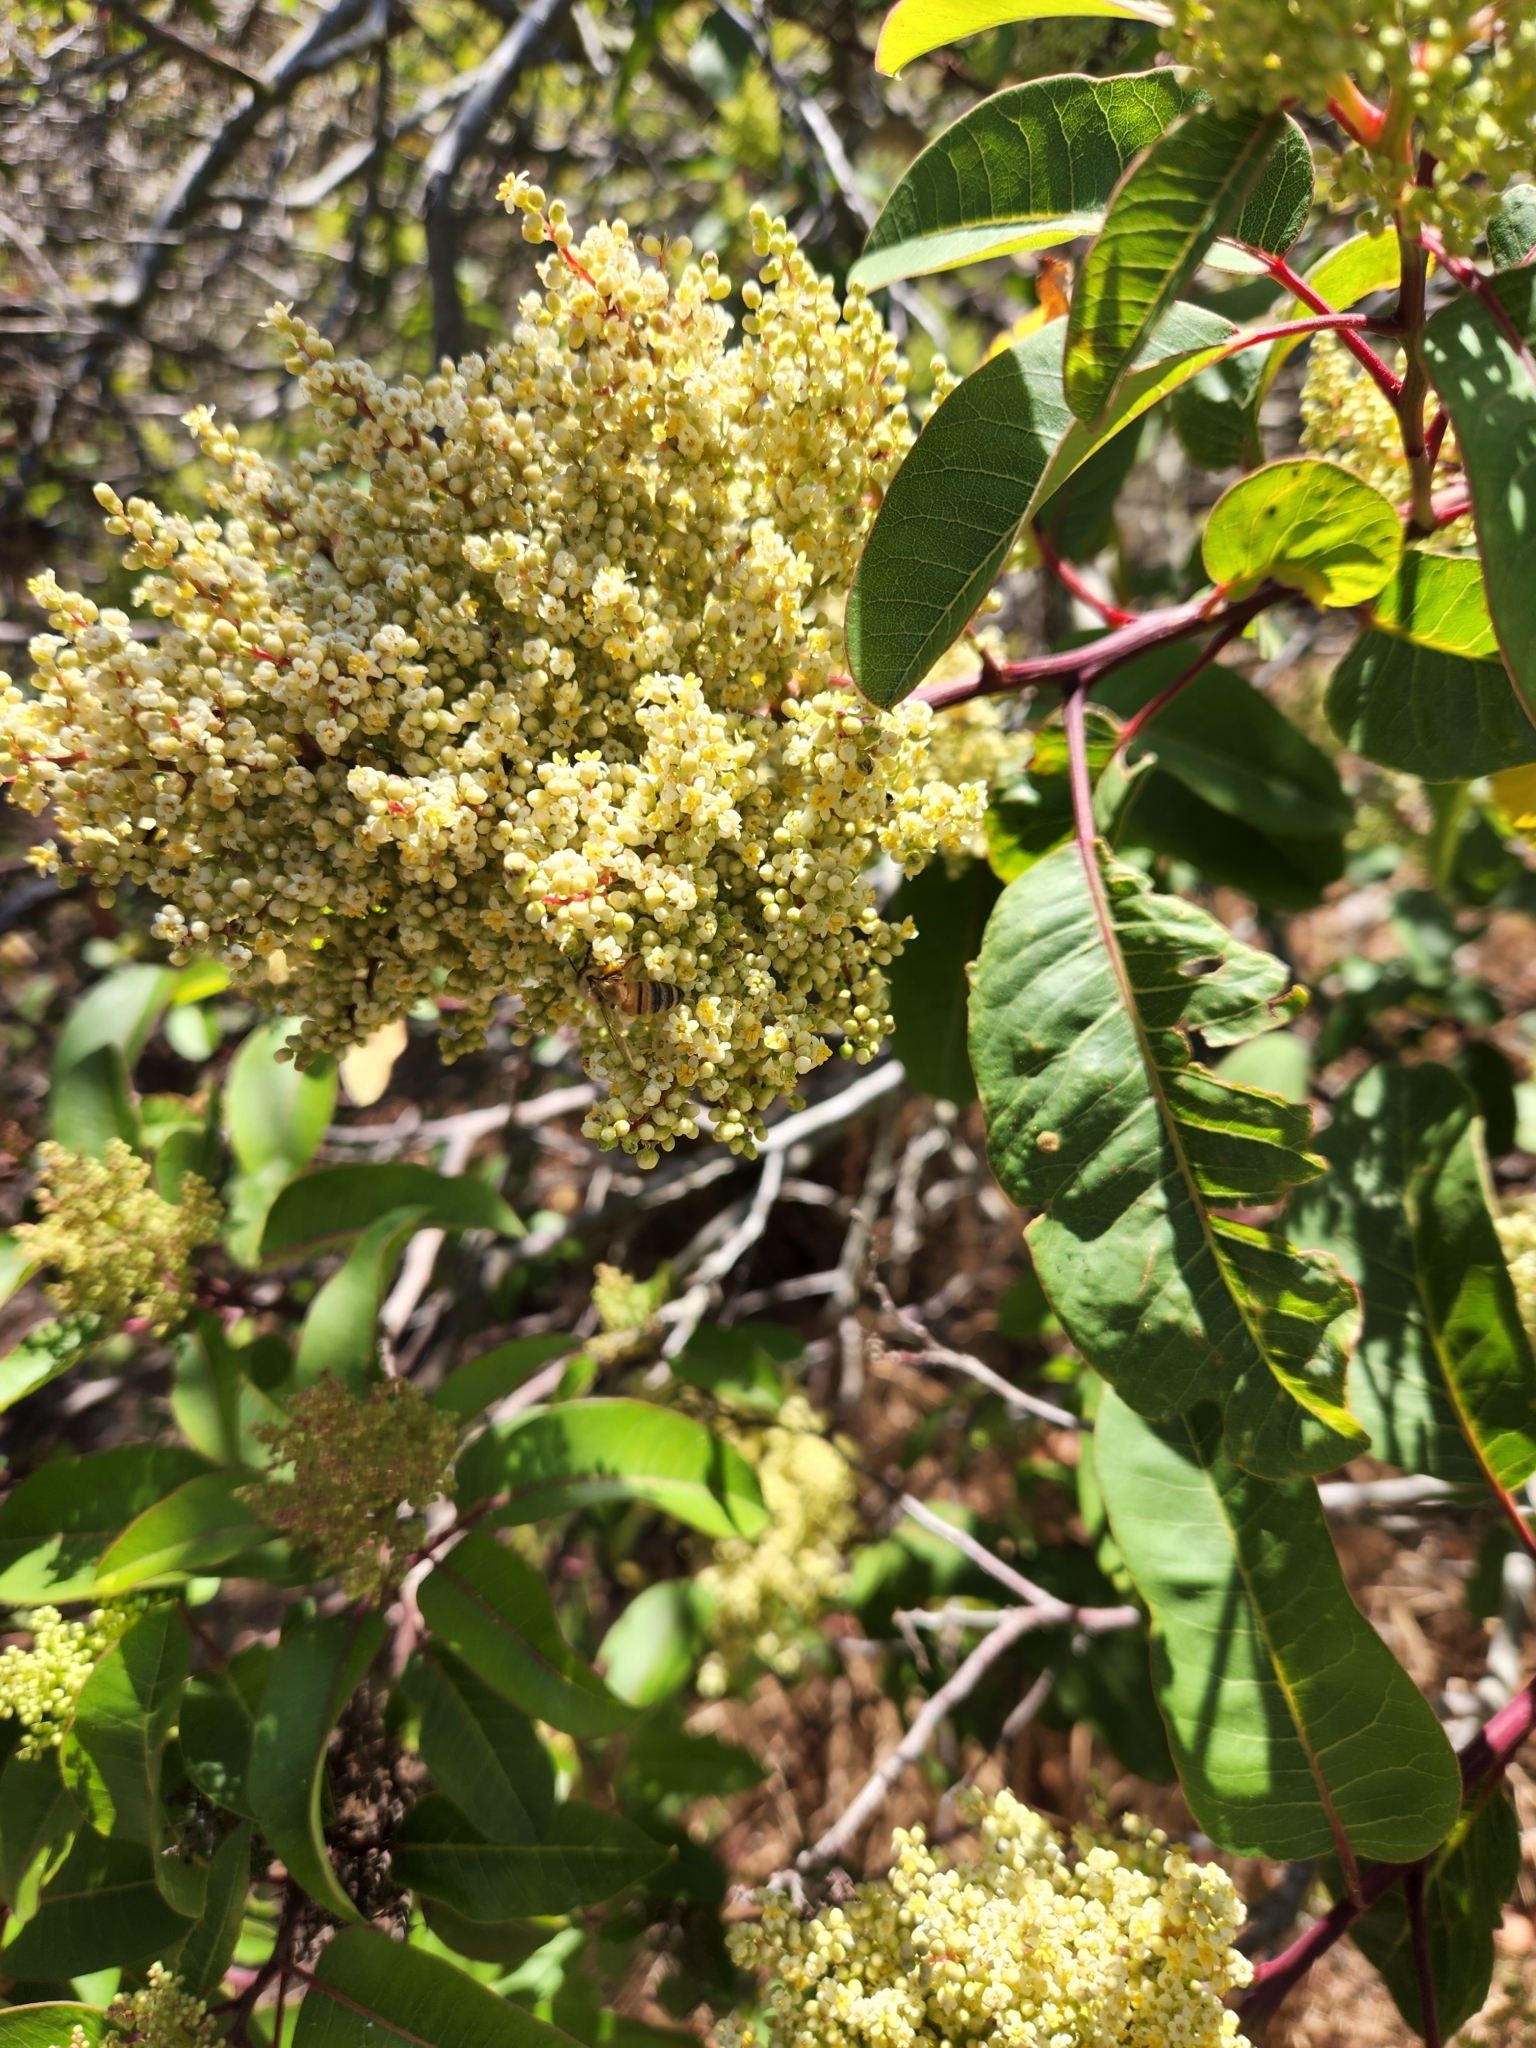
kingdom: Plantae
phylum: Tracheophyta
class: Magnoliopsida
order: Sapindales
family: Anacardiaceae
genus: Malosma
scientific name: Malosma laurina
